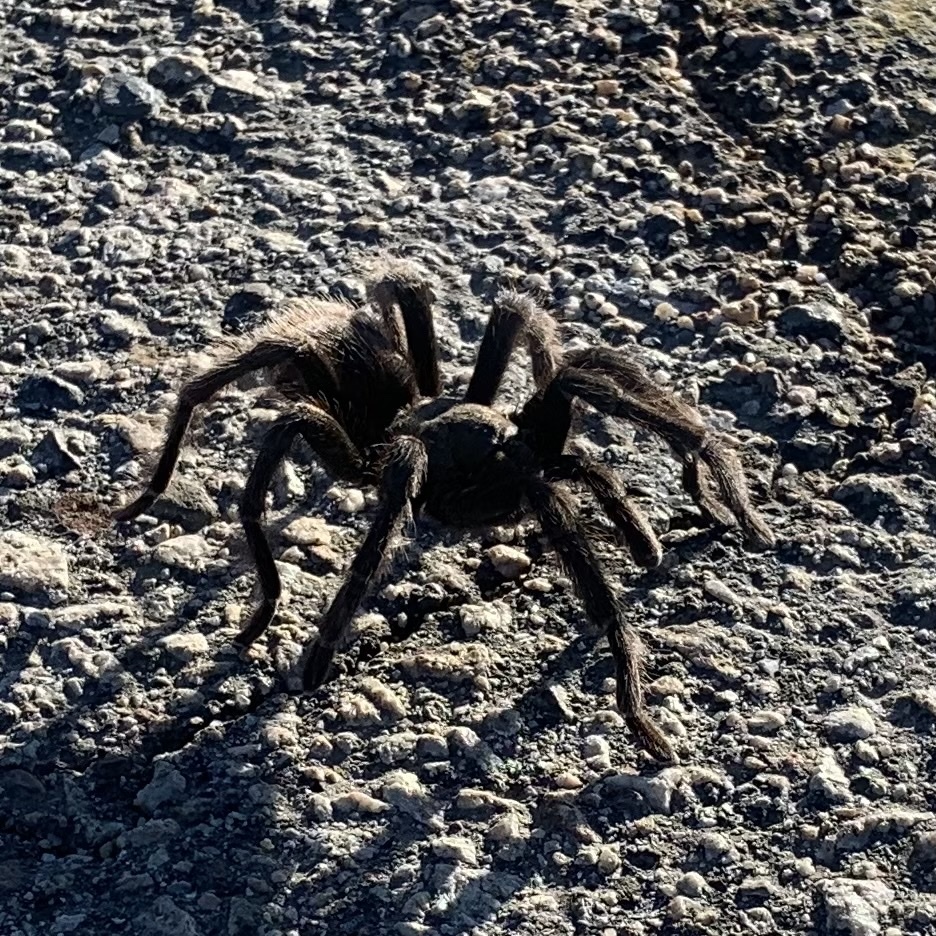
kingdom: Animalia
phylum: Arthropoda
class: Arachnida
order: Araneae
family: Theraphosidae
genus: Aphonopelma
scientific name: Aphonopelma iodius
